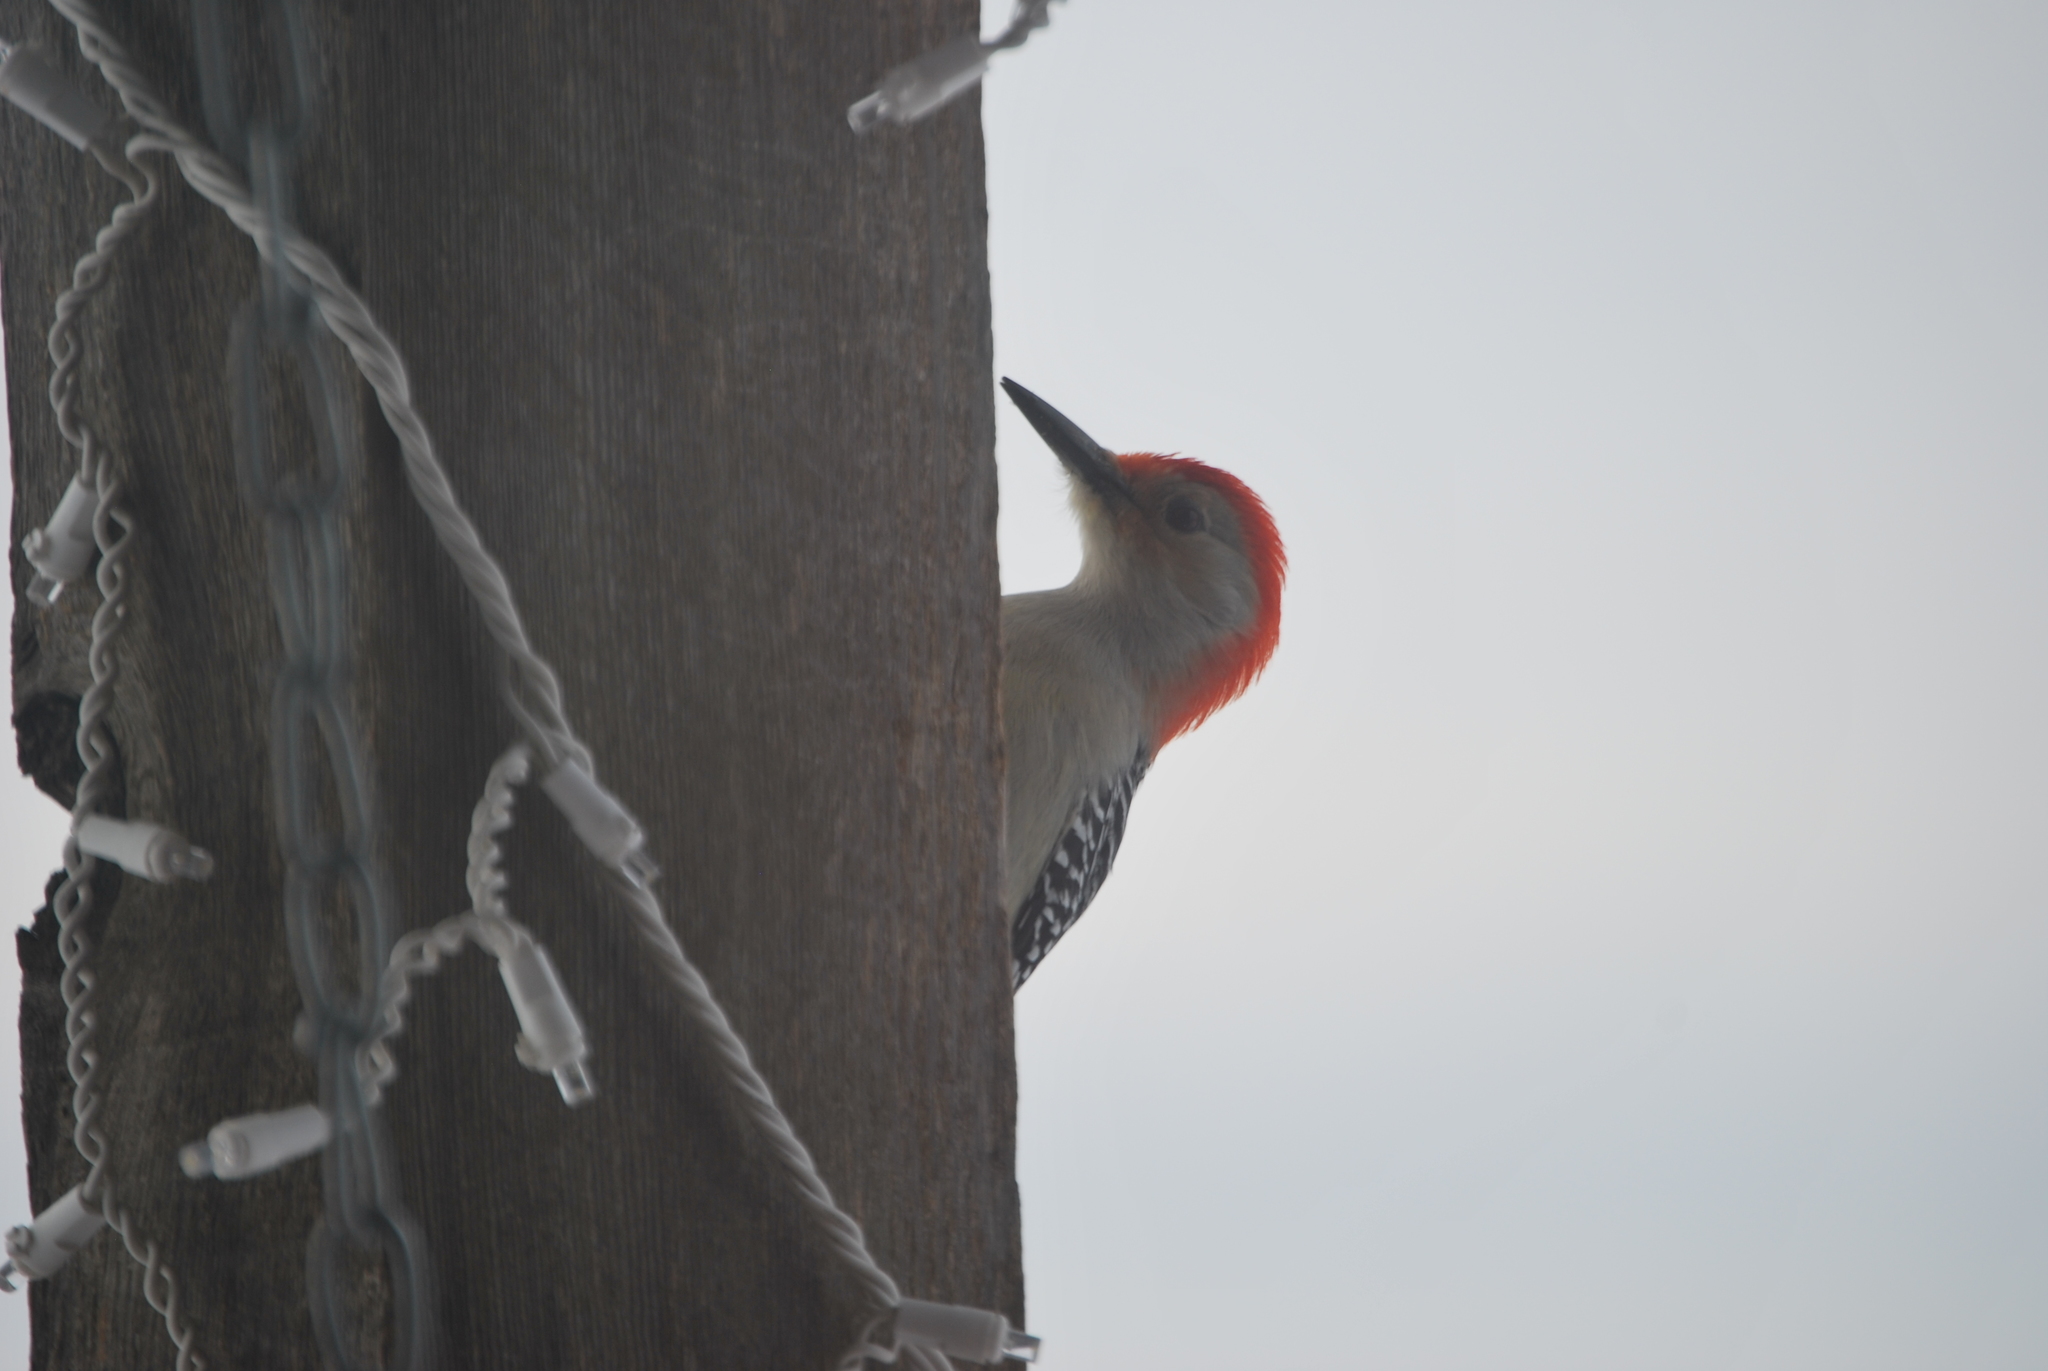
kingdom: Animalia
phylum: Chordata
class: Aves
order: Piciformes
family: Picidae
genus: Melanerpes
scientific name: Melanerpes carolinus
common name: Red-bellied woodpecker
